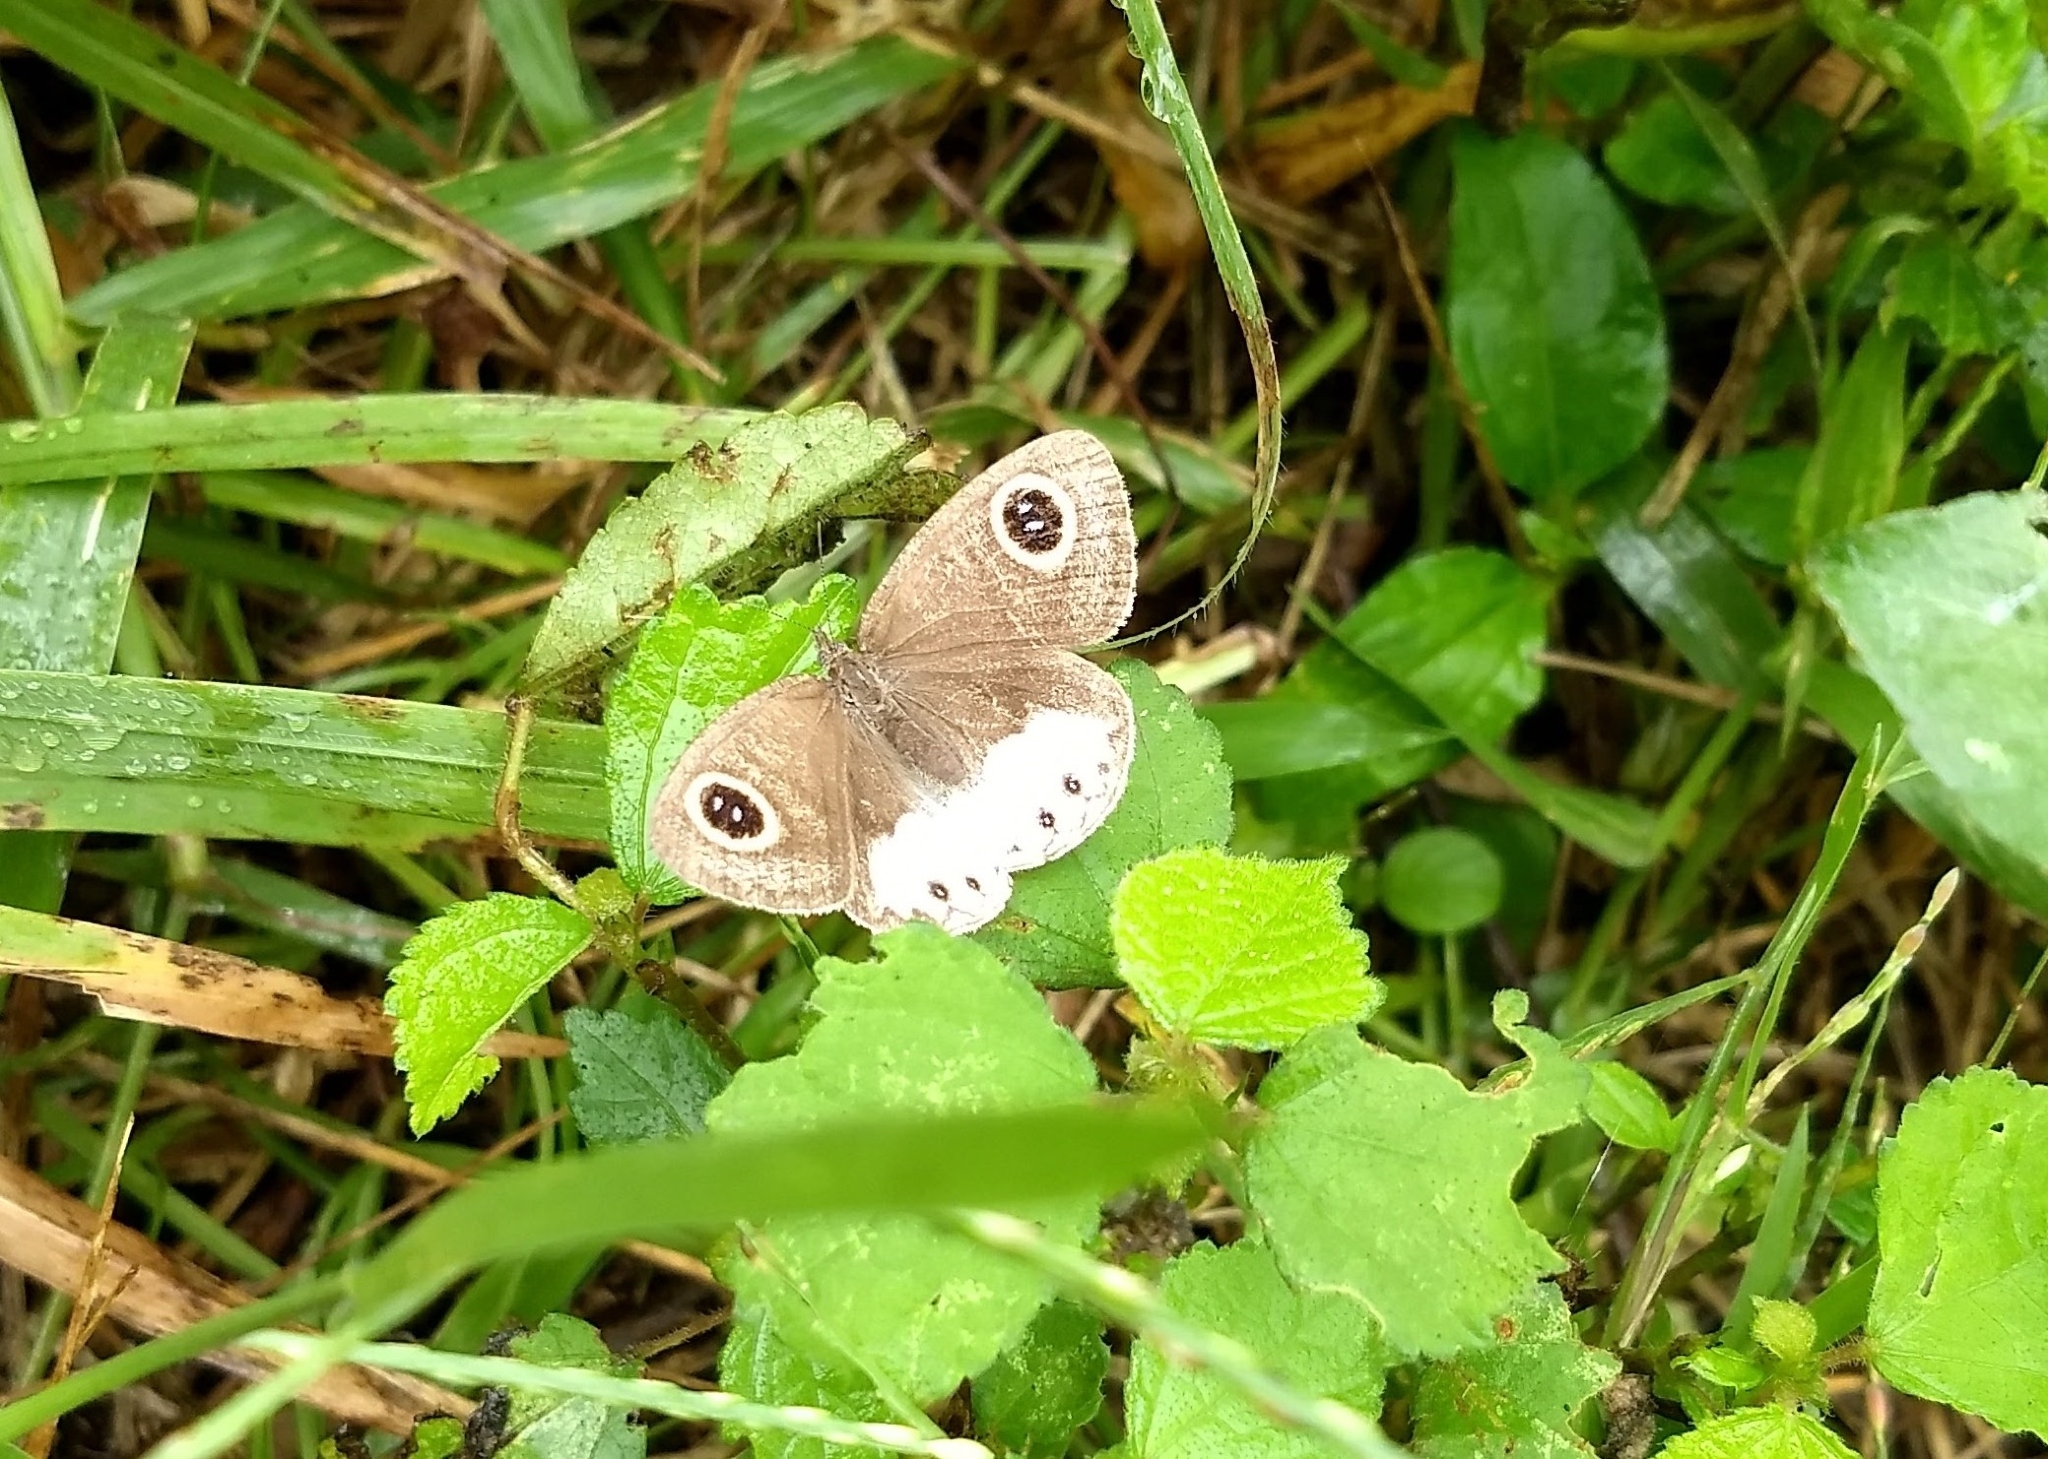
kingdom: Animalia
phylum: Arthropoda
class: Insecta
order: Lepidoptera
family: Nymphalidae
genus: Ypthima
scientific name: Ypthima ceylonica
